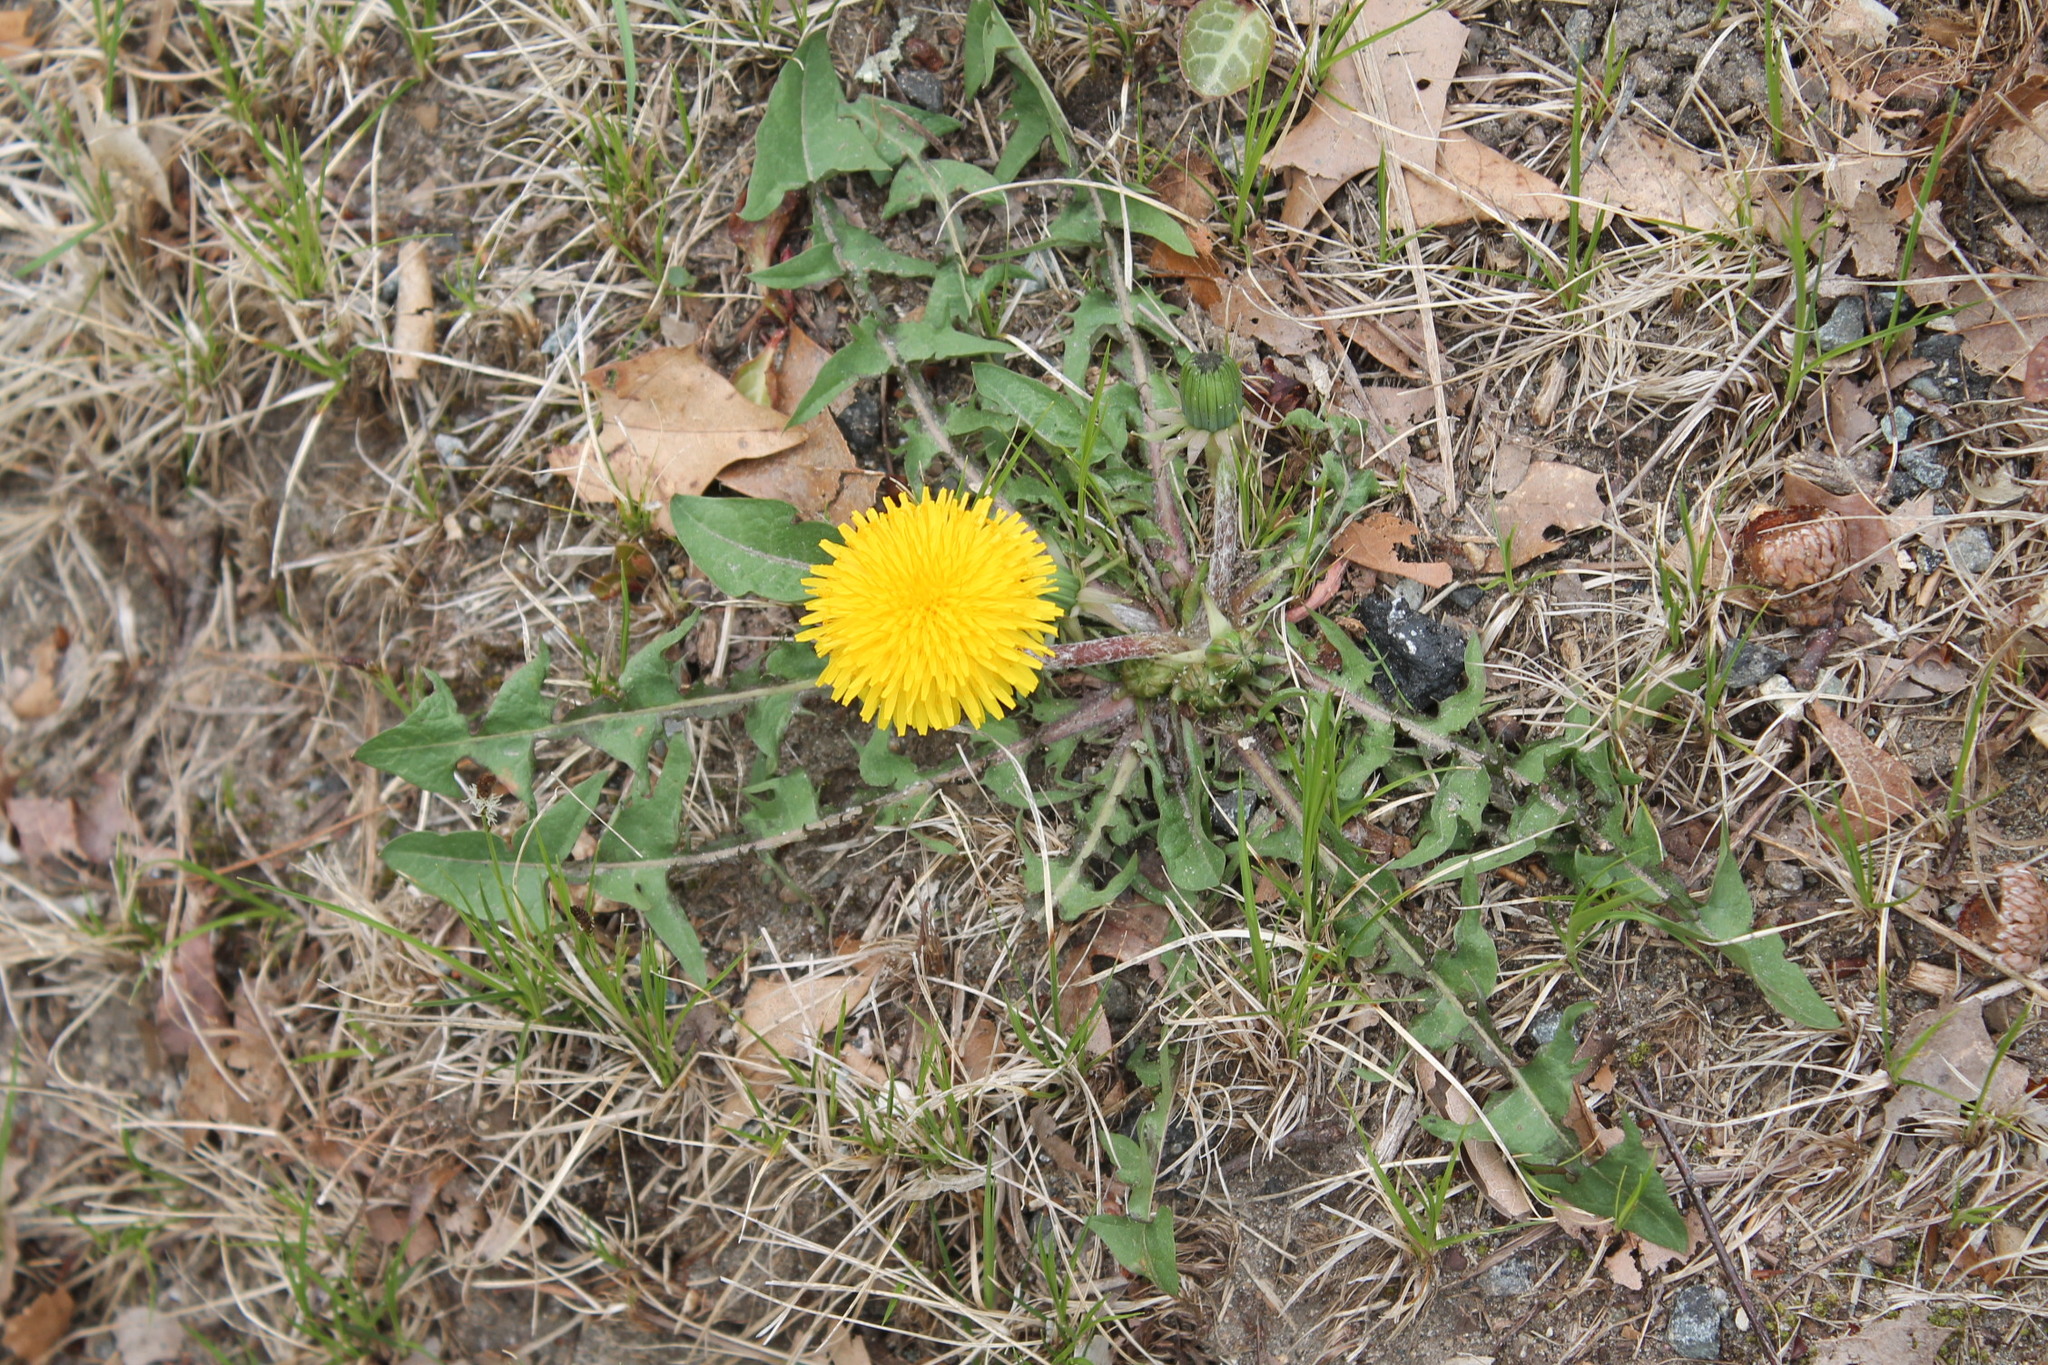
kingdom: Plantae
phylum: Tracheophyta
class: Magnoliopsida
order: Asterales
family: Asteraceae
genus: Taraxacum
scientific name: Taraxacum erythrospermum
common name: Rock dandelion
